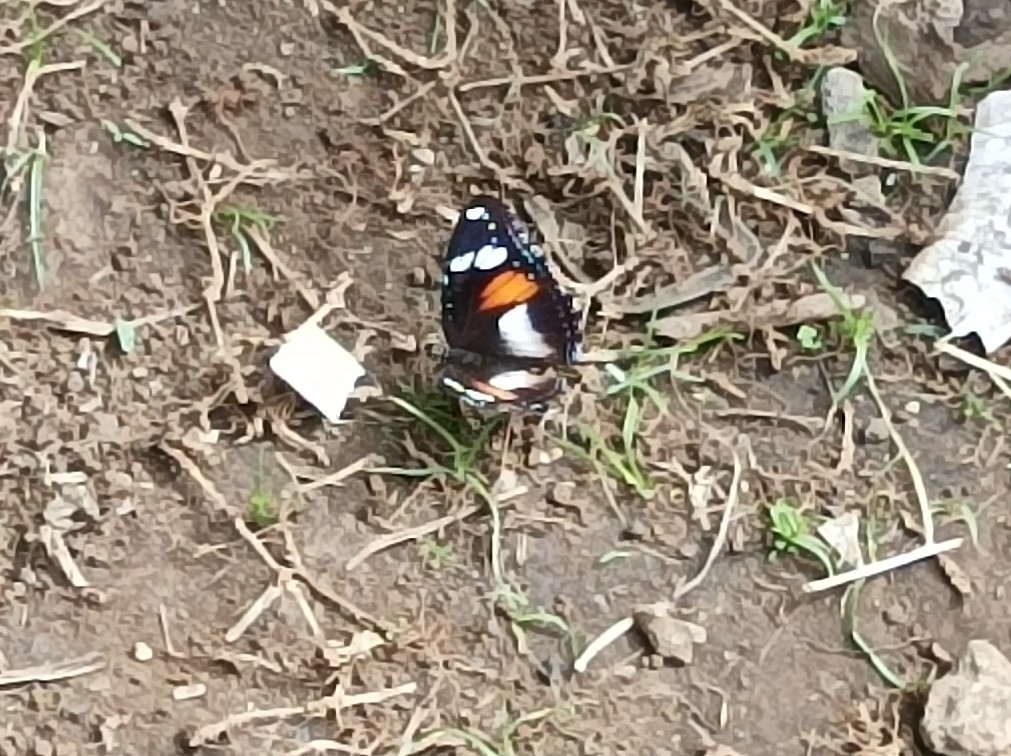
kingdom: Animalia
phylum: Arthropoda
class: Insecta
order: Lepidoptera
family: Nymphalidae
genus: Hypolimnas
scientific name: Hypolimnas bolina
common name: Great eggfly
